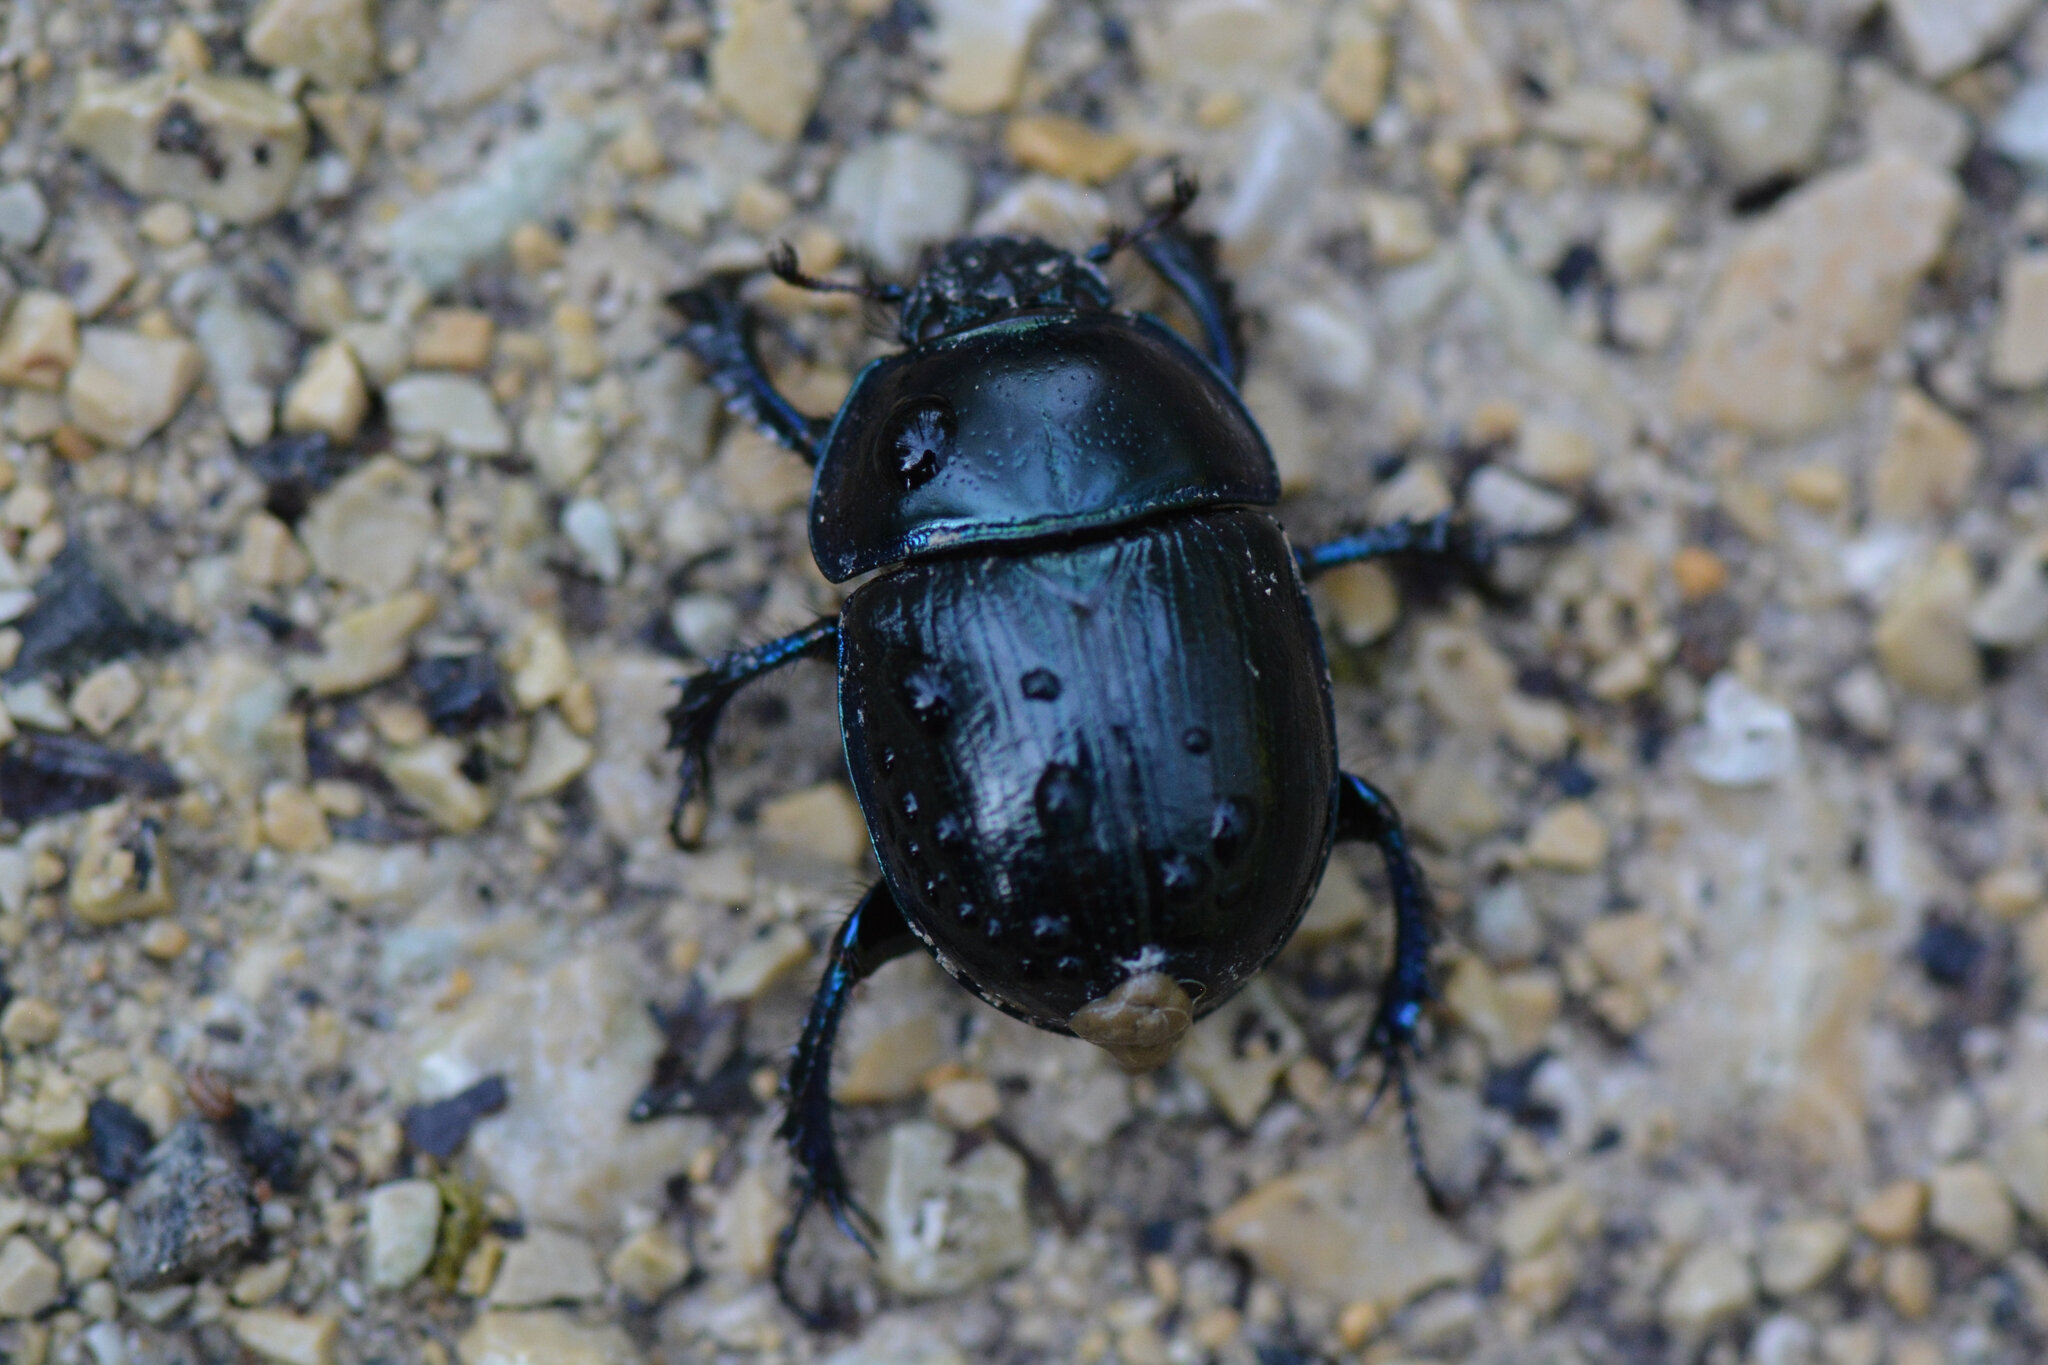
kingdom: Animalia
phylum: Arthropoda
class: Insecta
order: Coleoptera
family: Geotrupidae
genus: Anoplotrupes
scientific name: Anoplotrupes stercorosus
